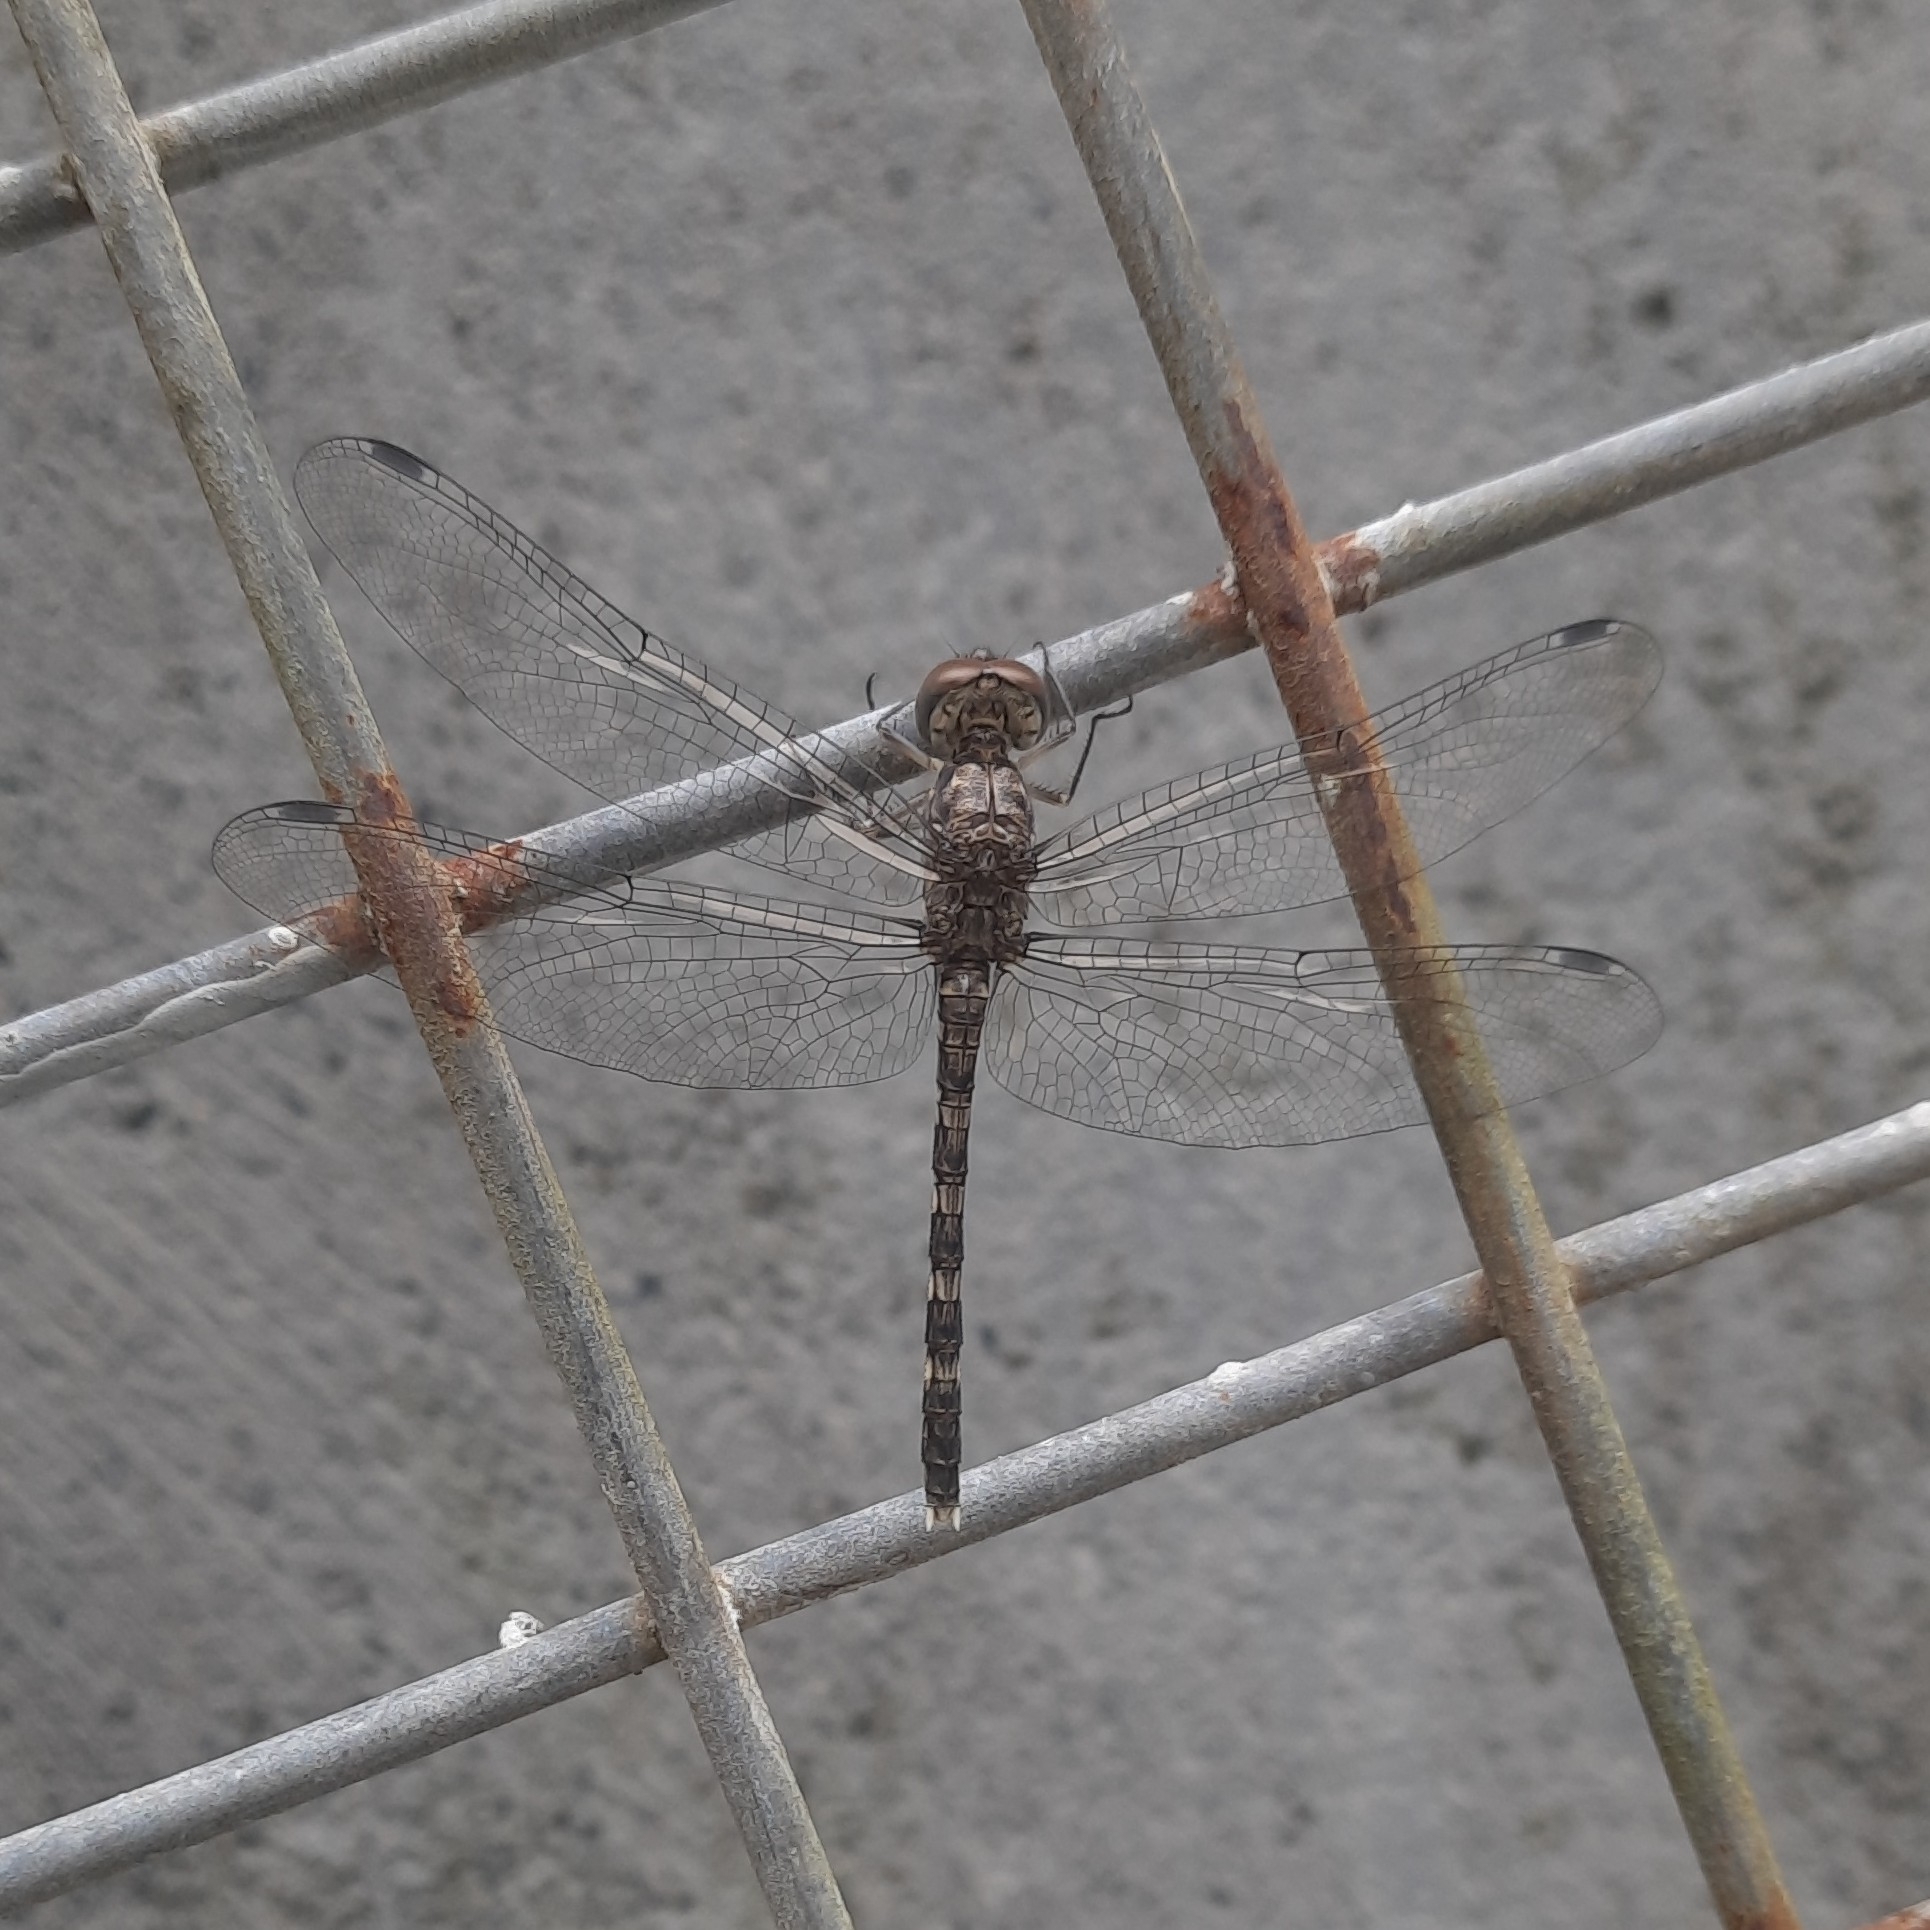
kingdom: Animalia
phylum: Arthropoda
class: Insecta
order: Odonata
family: Libellulidae
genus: Bradinopyga
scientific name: Bradinopyga geminata
